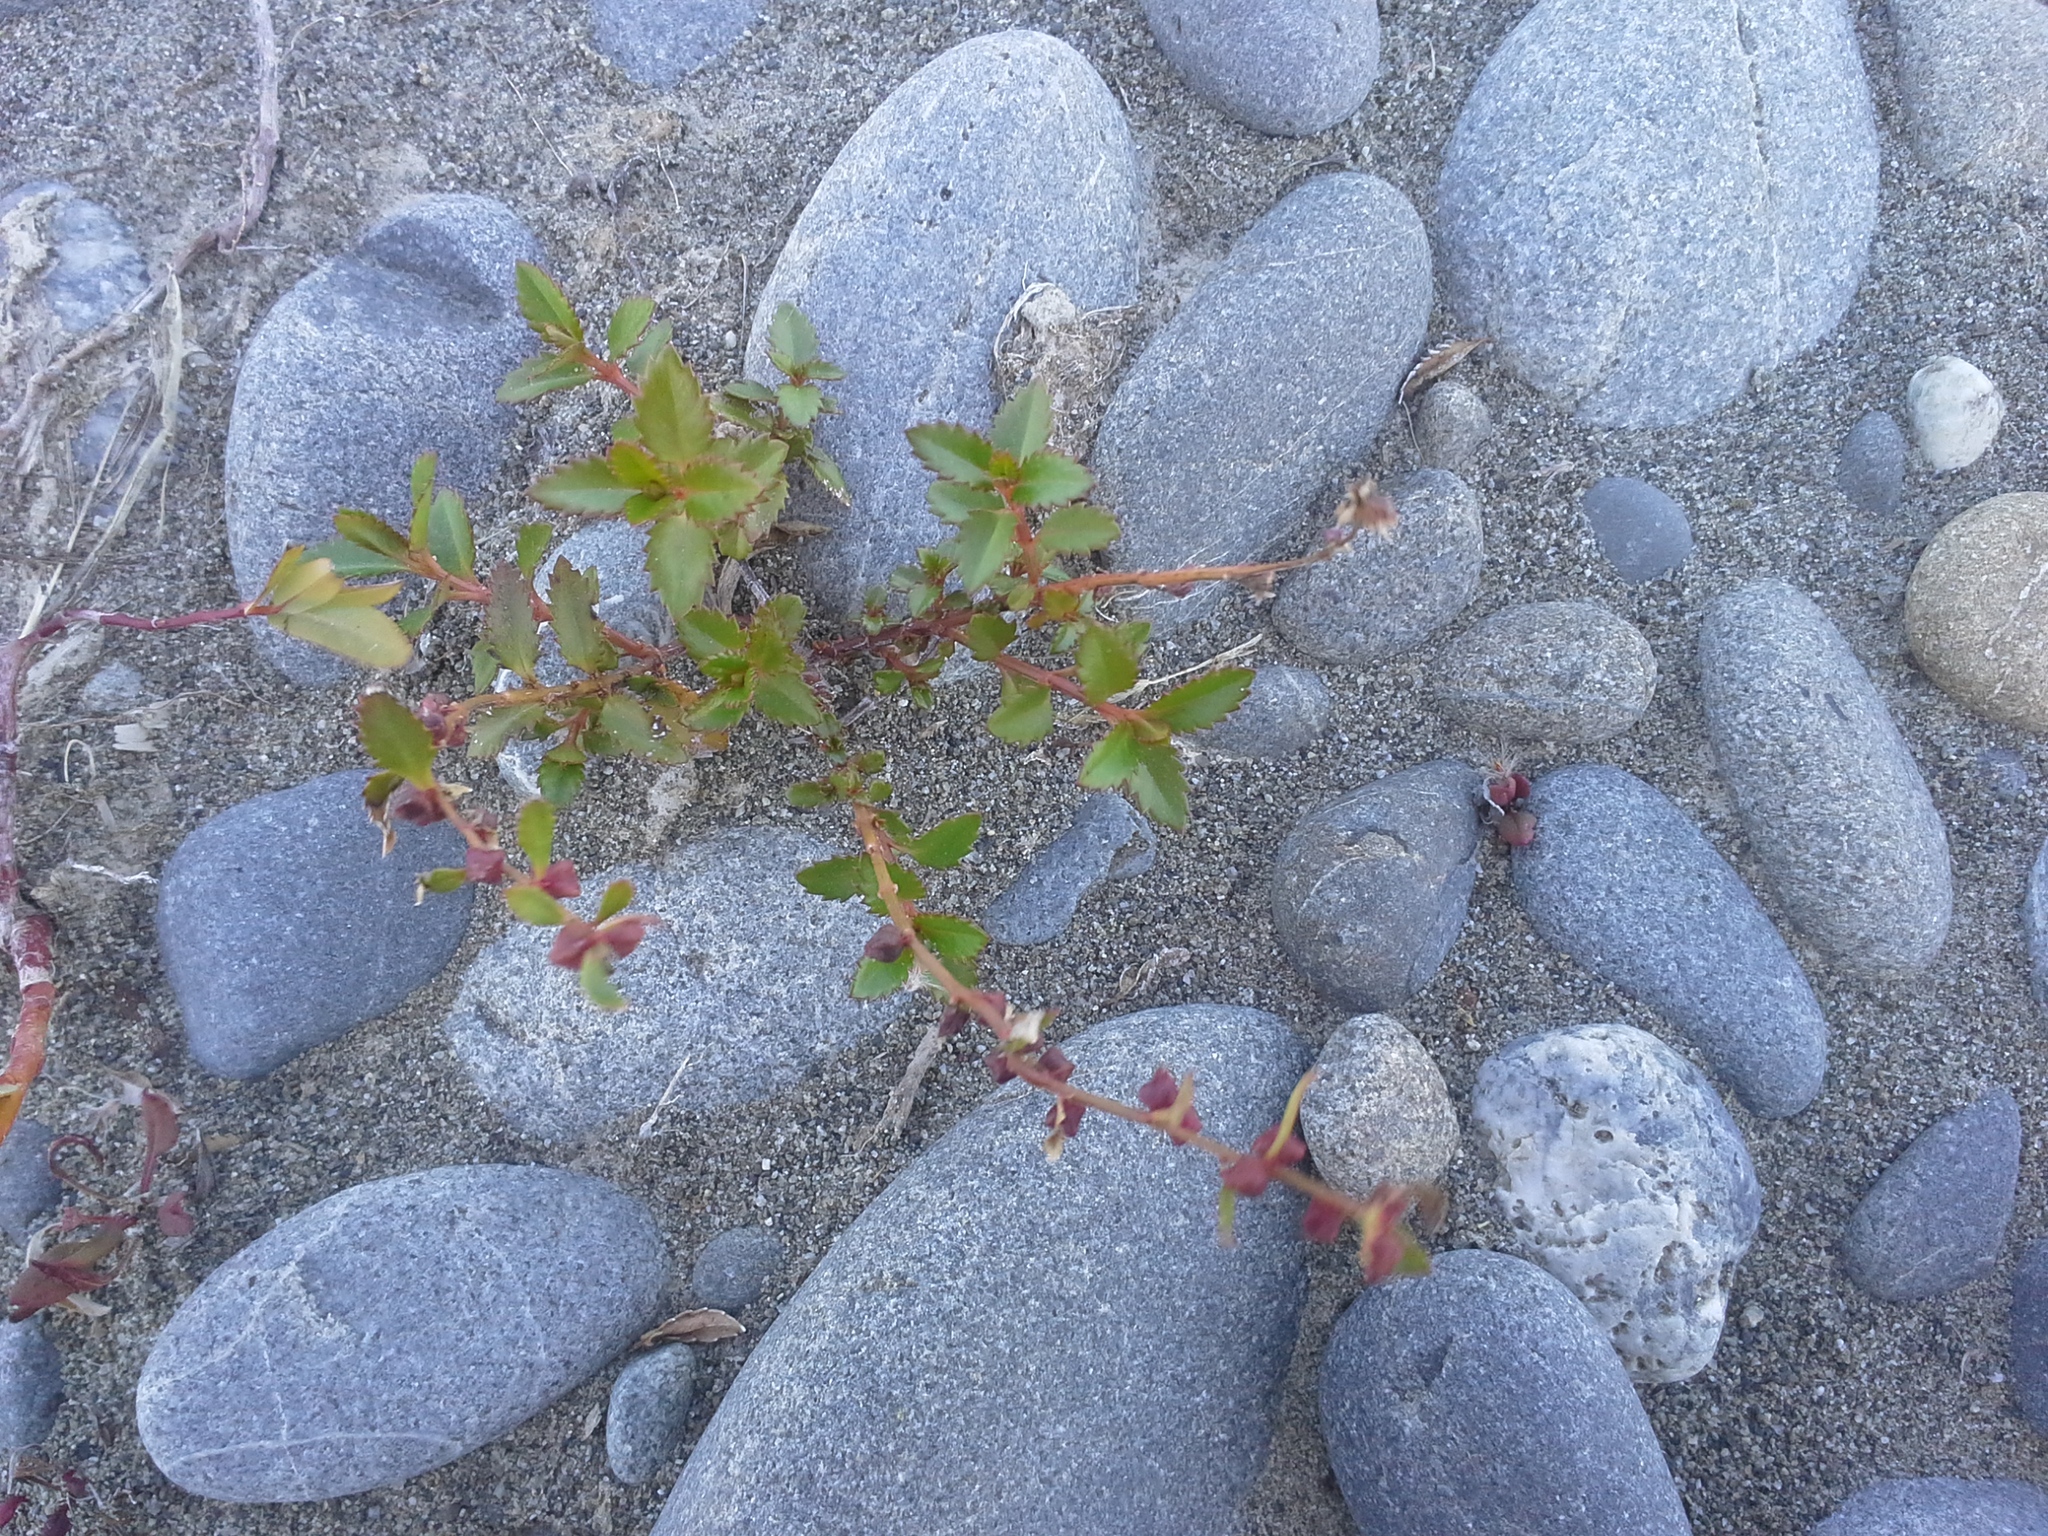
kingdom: Plantae
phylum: Tracheophyta
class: Magnoliopsida
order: Saxifragales
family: Haloragaceae
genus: Haloragis
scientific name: Haloragis erecta
